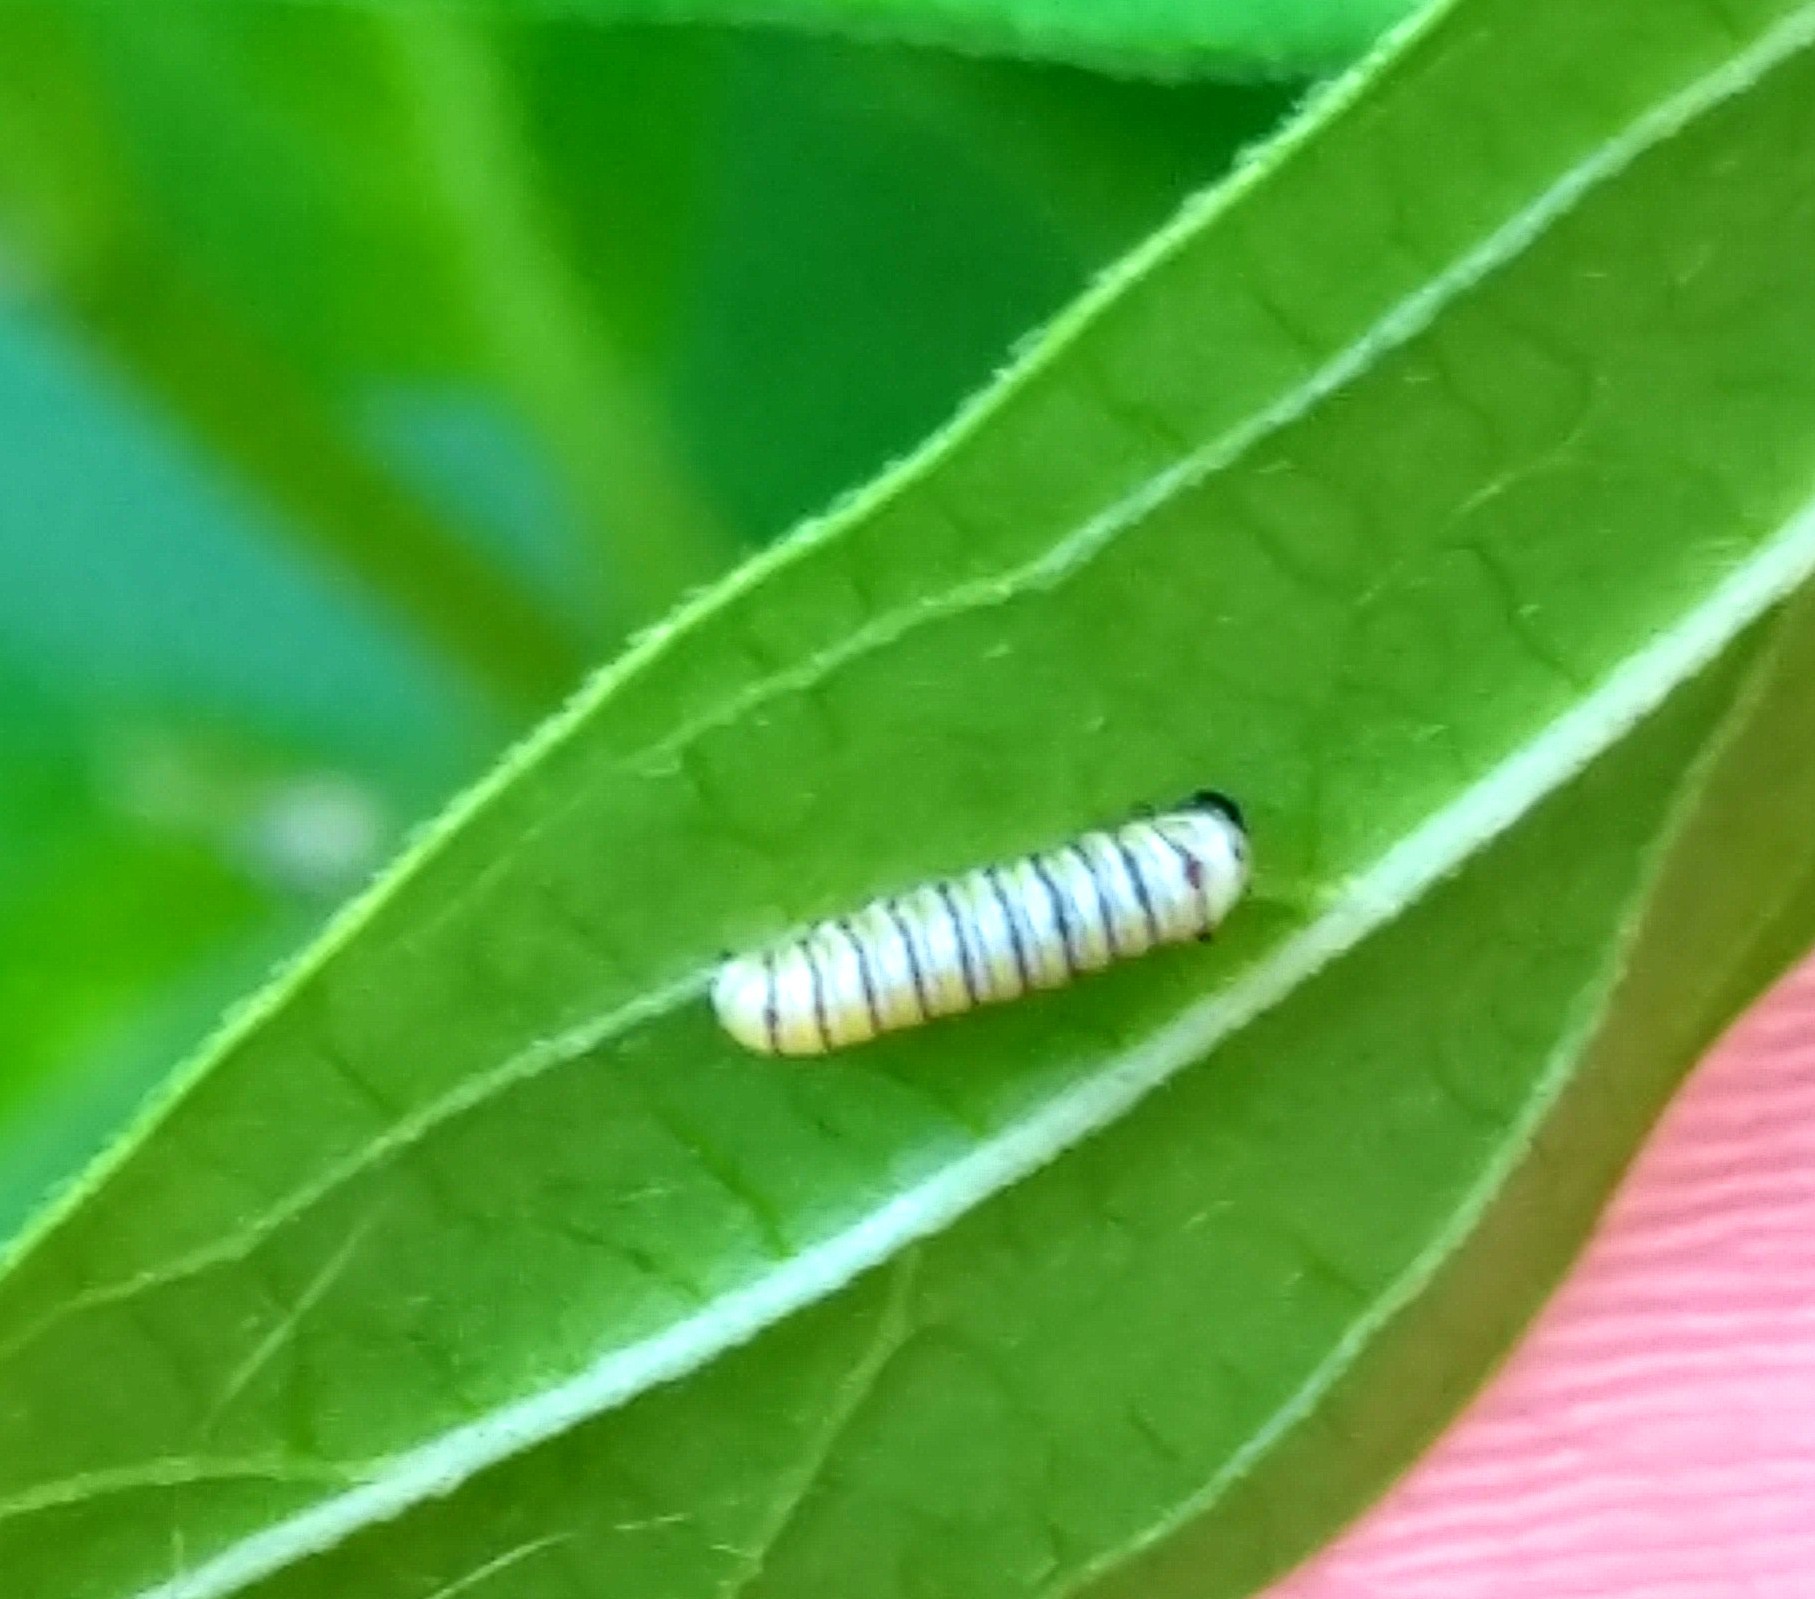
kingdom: Animalia
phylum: Arthropoda
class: Insecta
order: Lepidoptera
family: Nymphalidae
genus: Danaus
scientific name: Danaus plexippus
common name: Monarch
